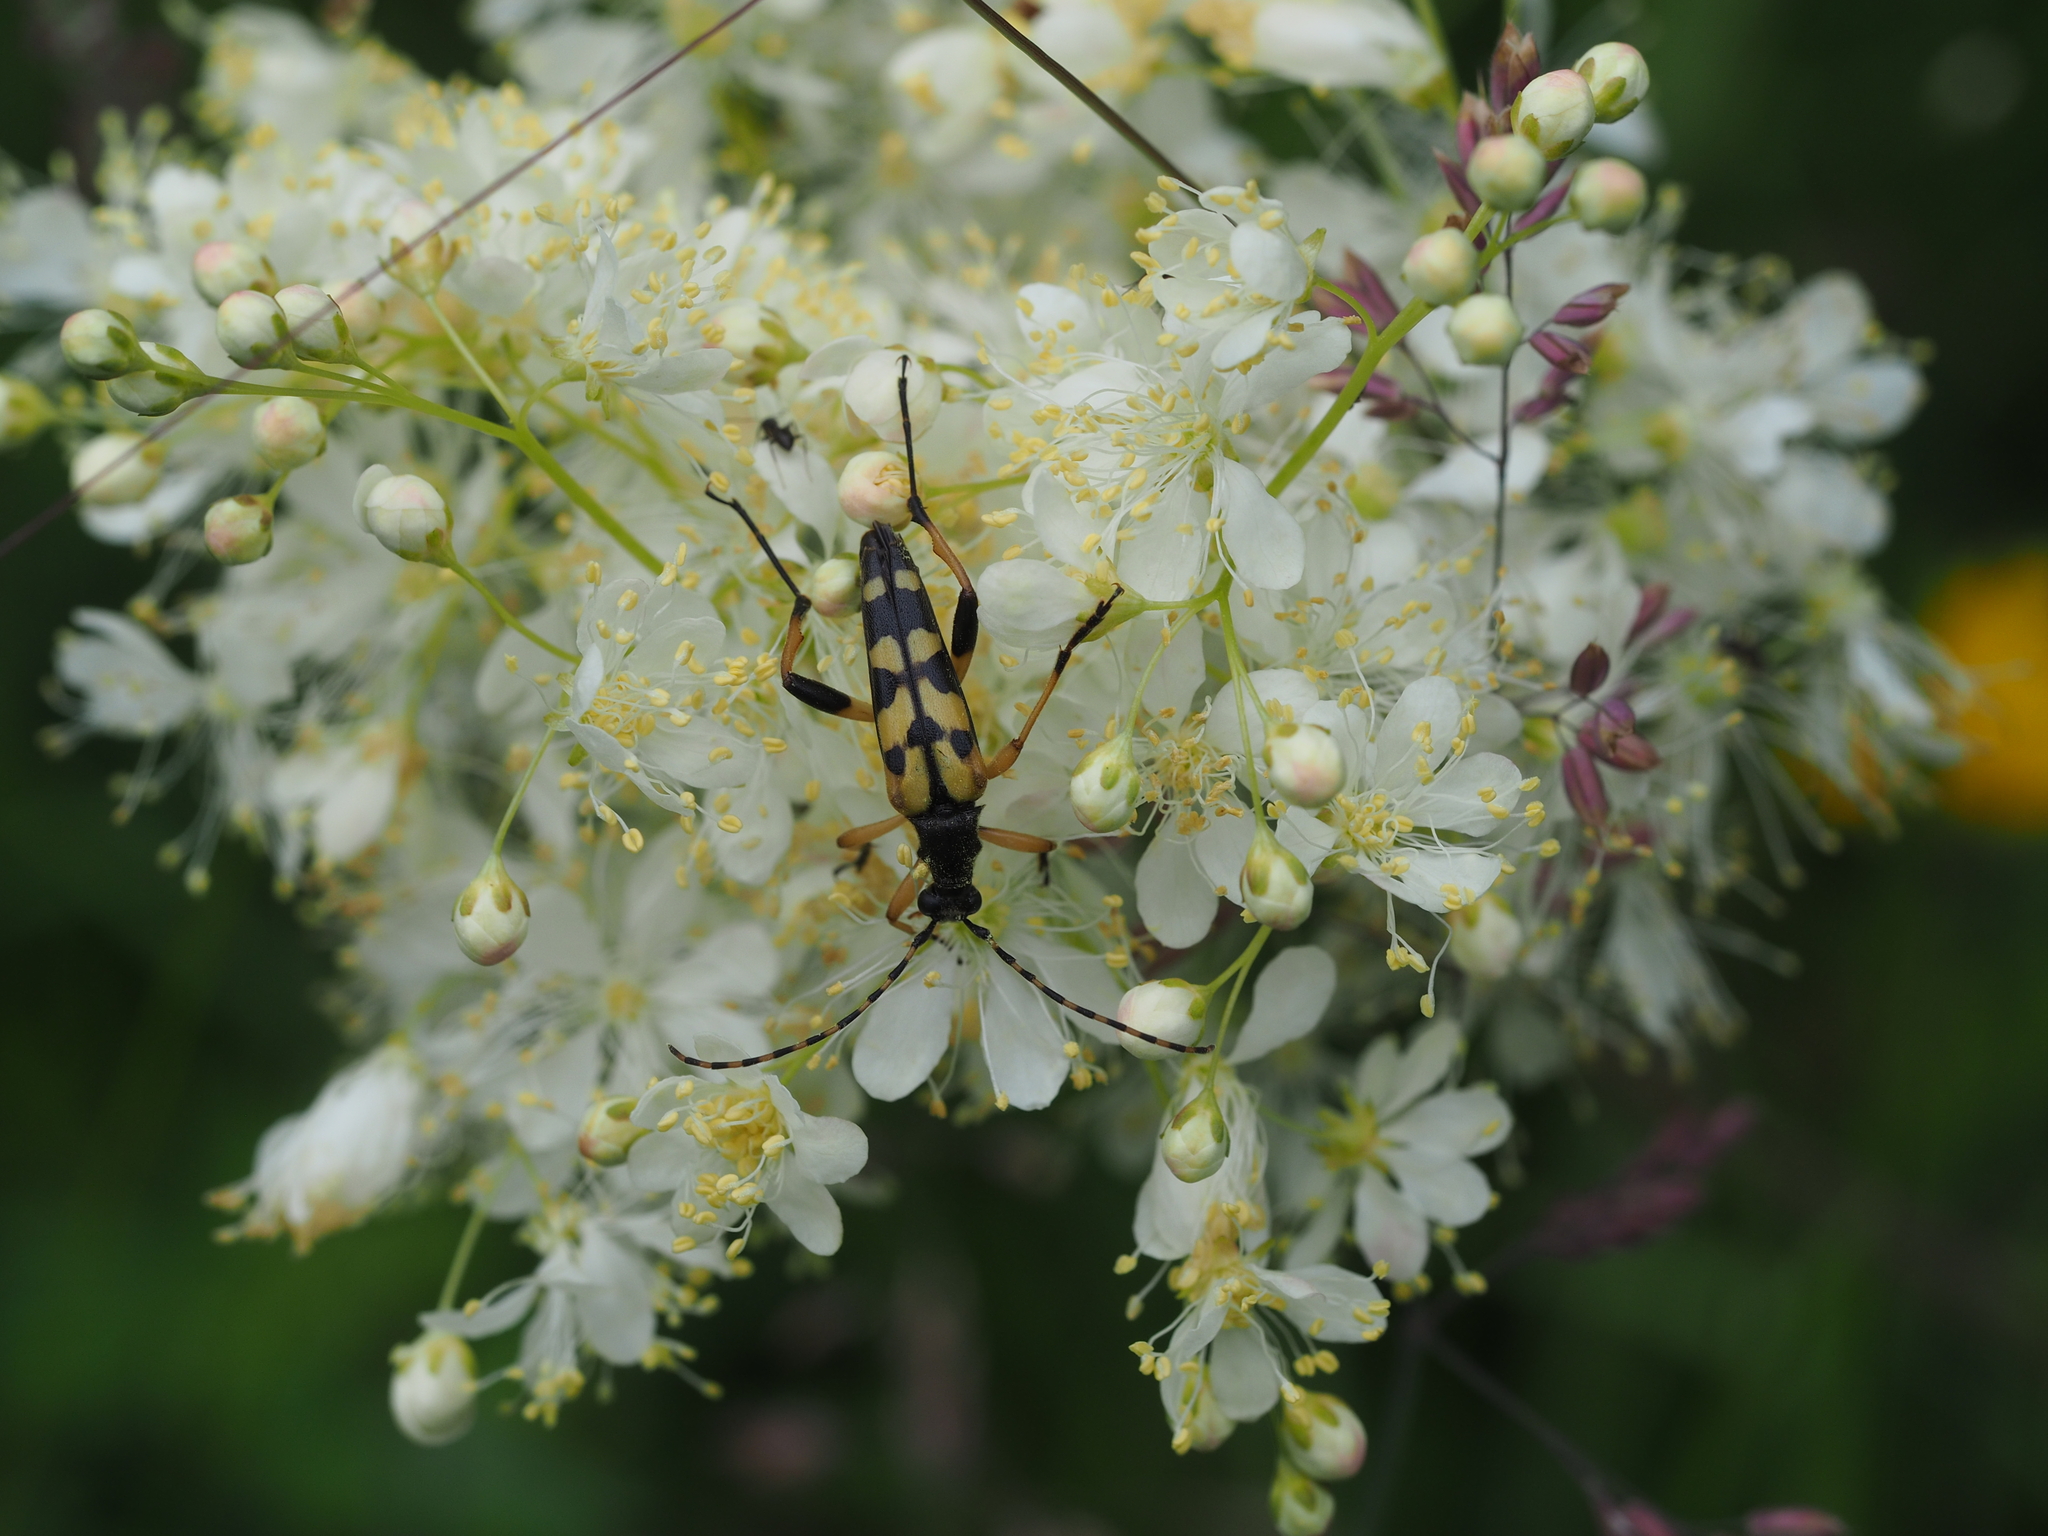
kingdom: Animalia
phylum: Arthropoda
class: Insecta
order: Coleoptera
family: Cerambycidae
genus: Rutpela
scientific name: Rutpela maculata
